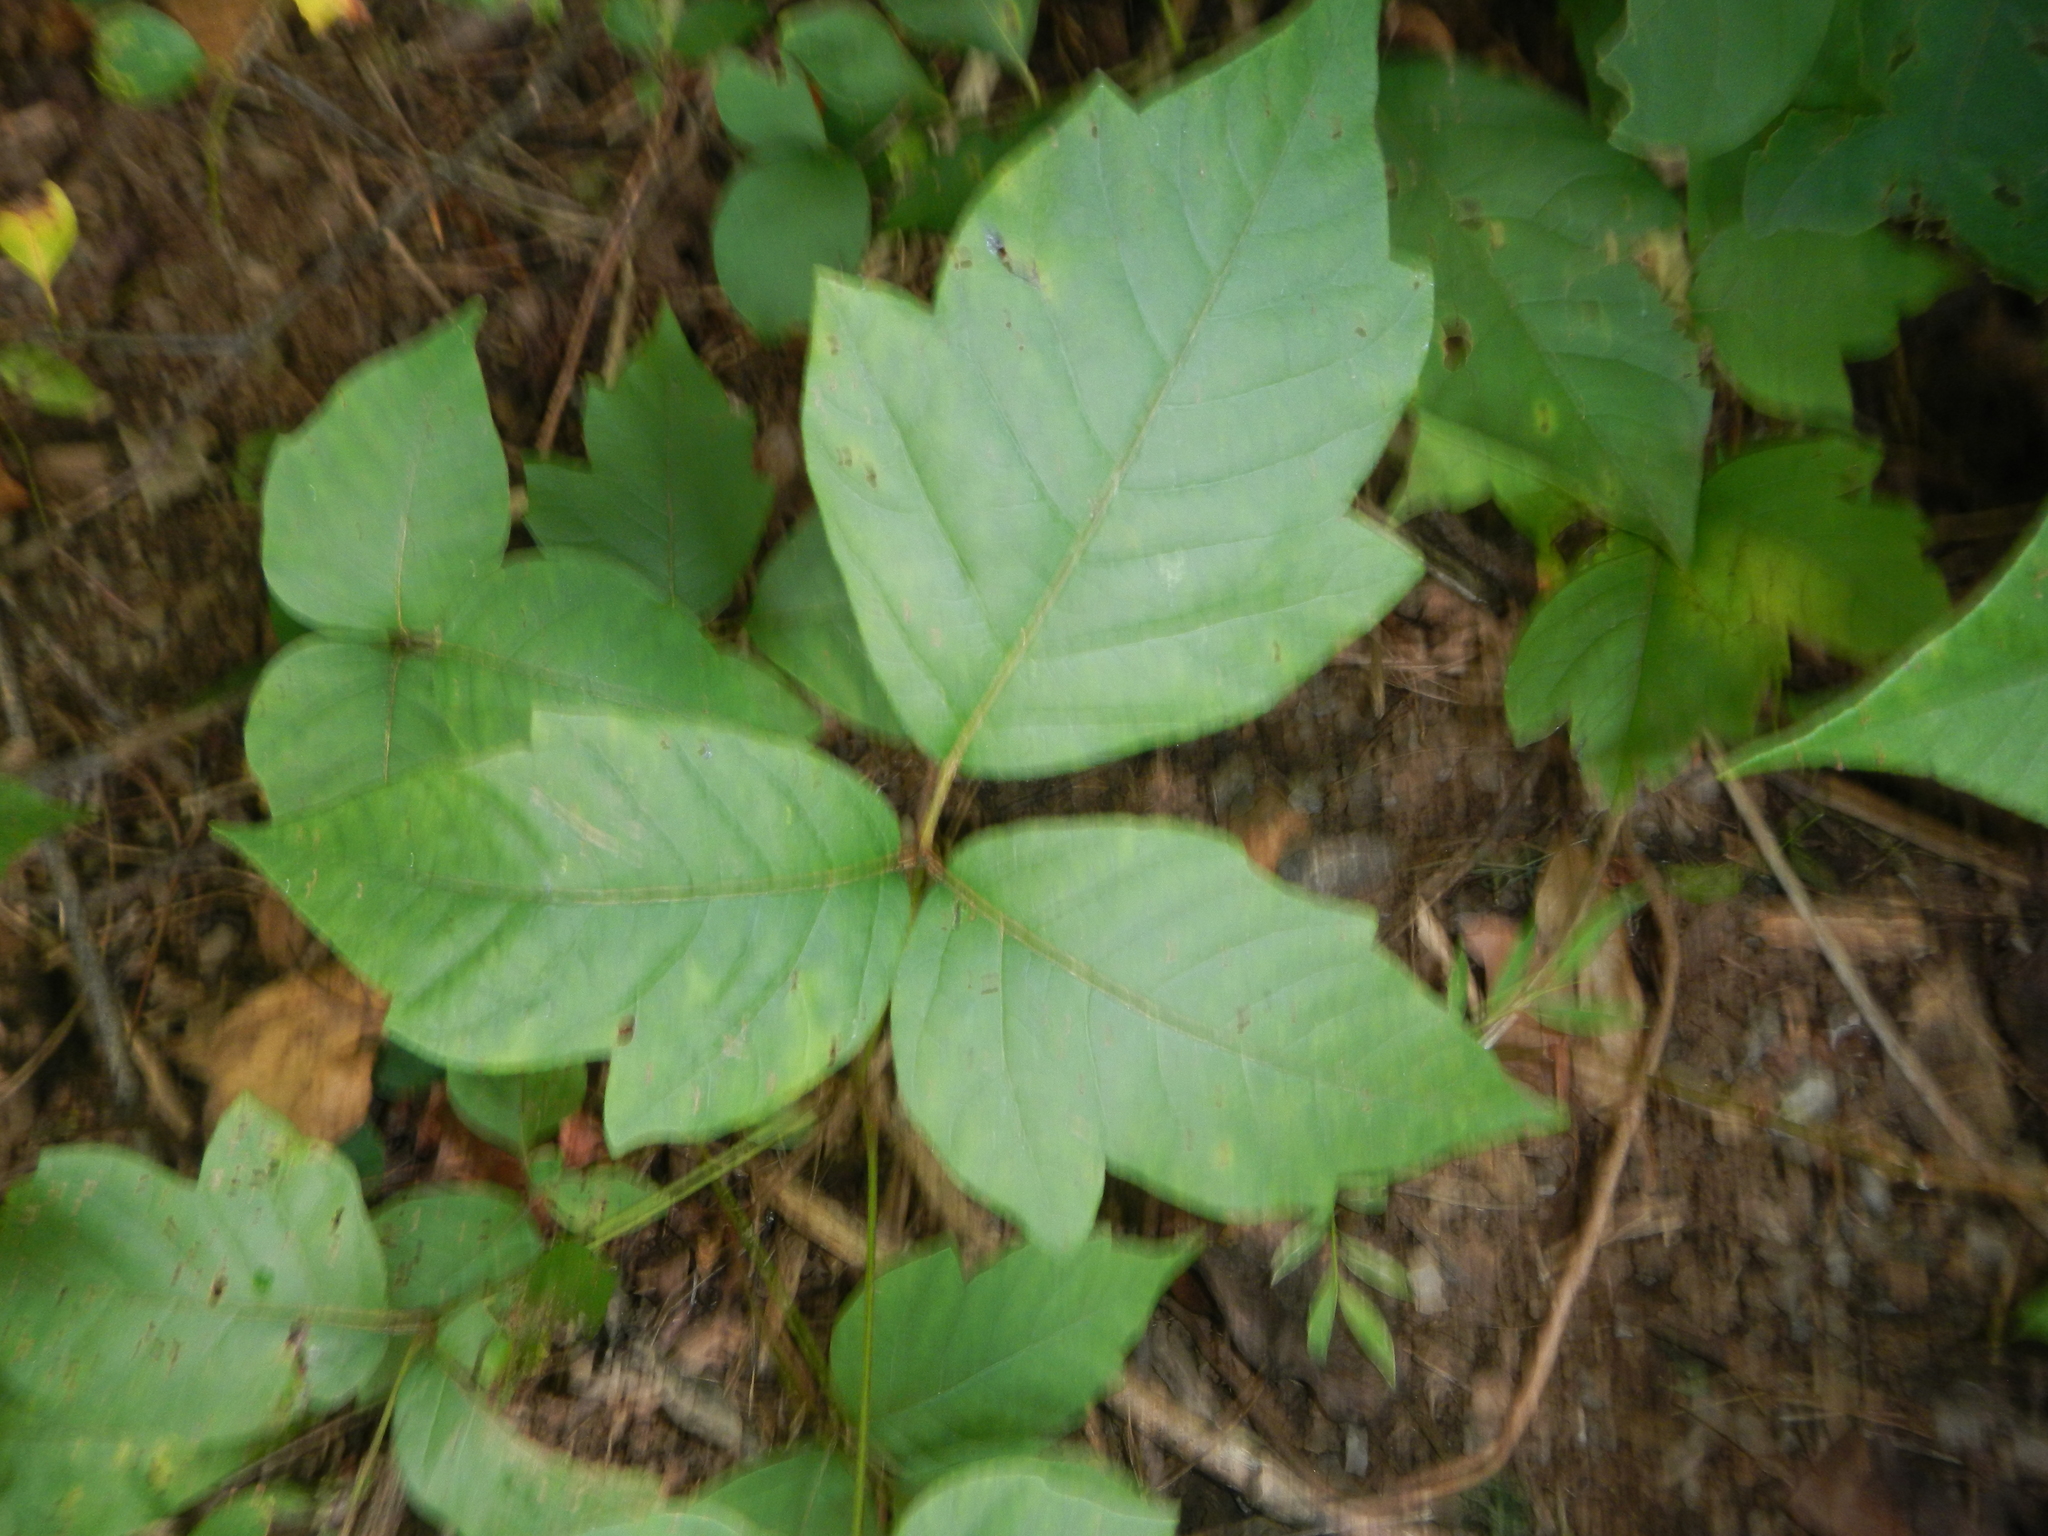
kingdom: Plantae
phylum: Tracheophyta
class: Magnoliopsida
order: Sapindales
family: Anacardiaceae
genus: Toxicodendron
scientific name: Toxicodendron radicans
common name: Poison ivy
